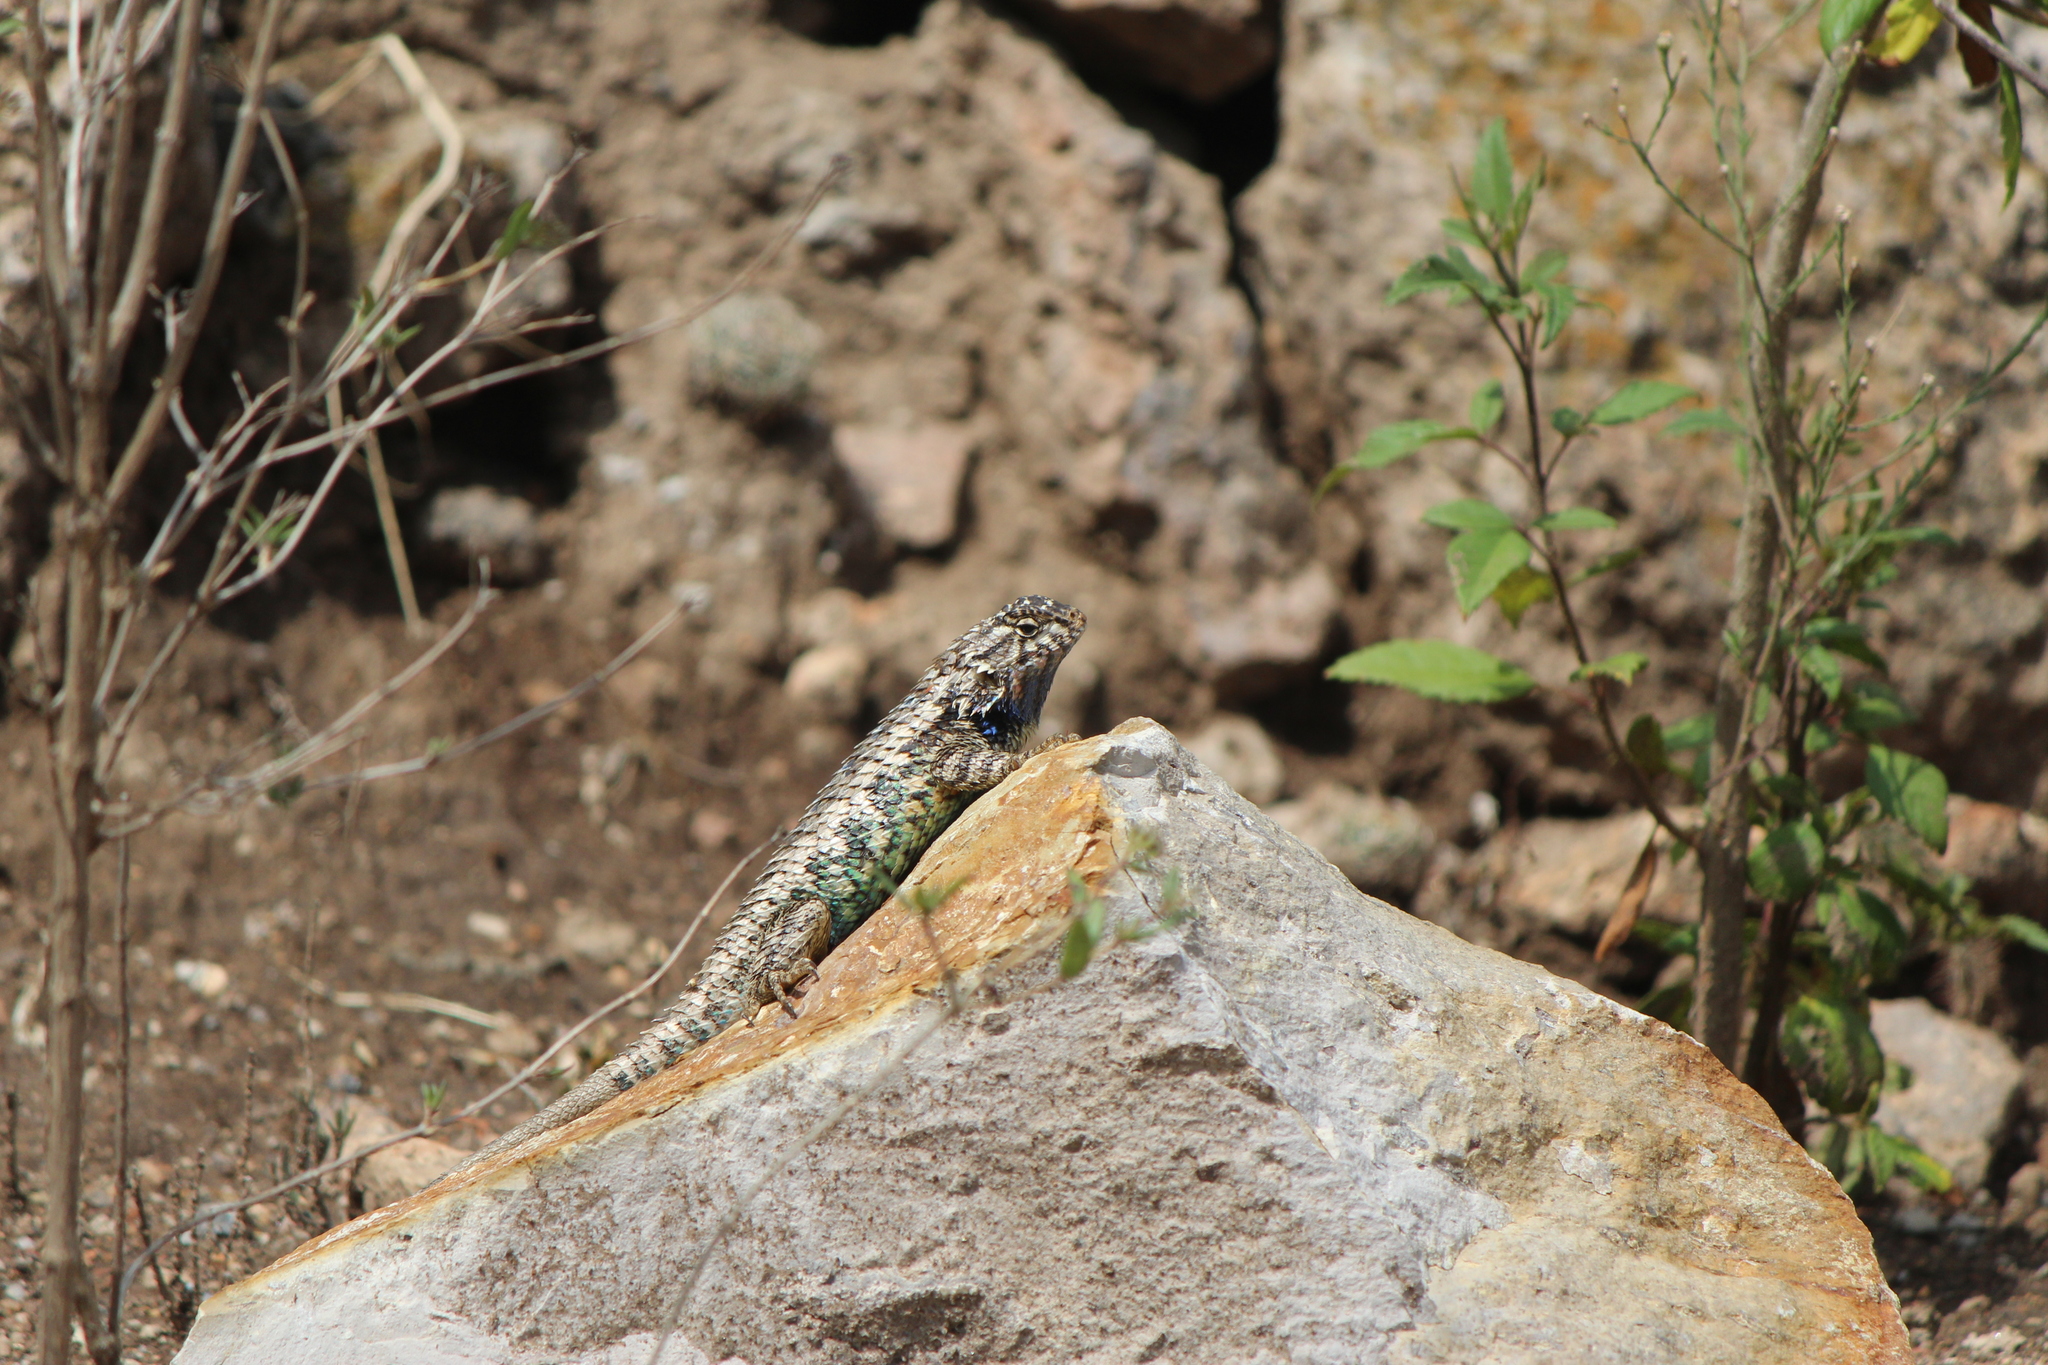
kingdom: Animalia
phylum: Chordata
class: Squamata
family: Phrynosomatidae
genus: Sceloporus
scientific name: Sceloporus spinosus
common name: Blue-spotted spiny lizard [caeruleopunctatus]
